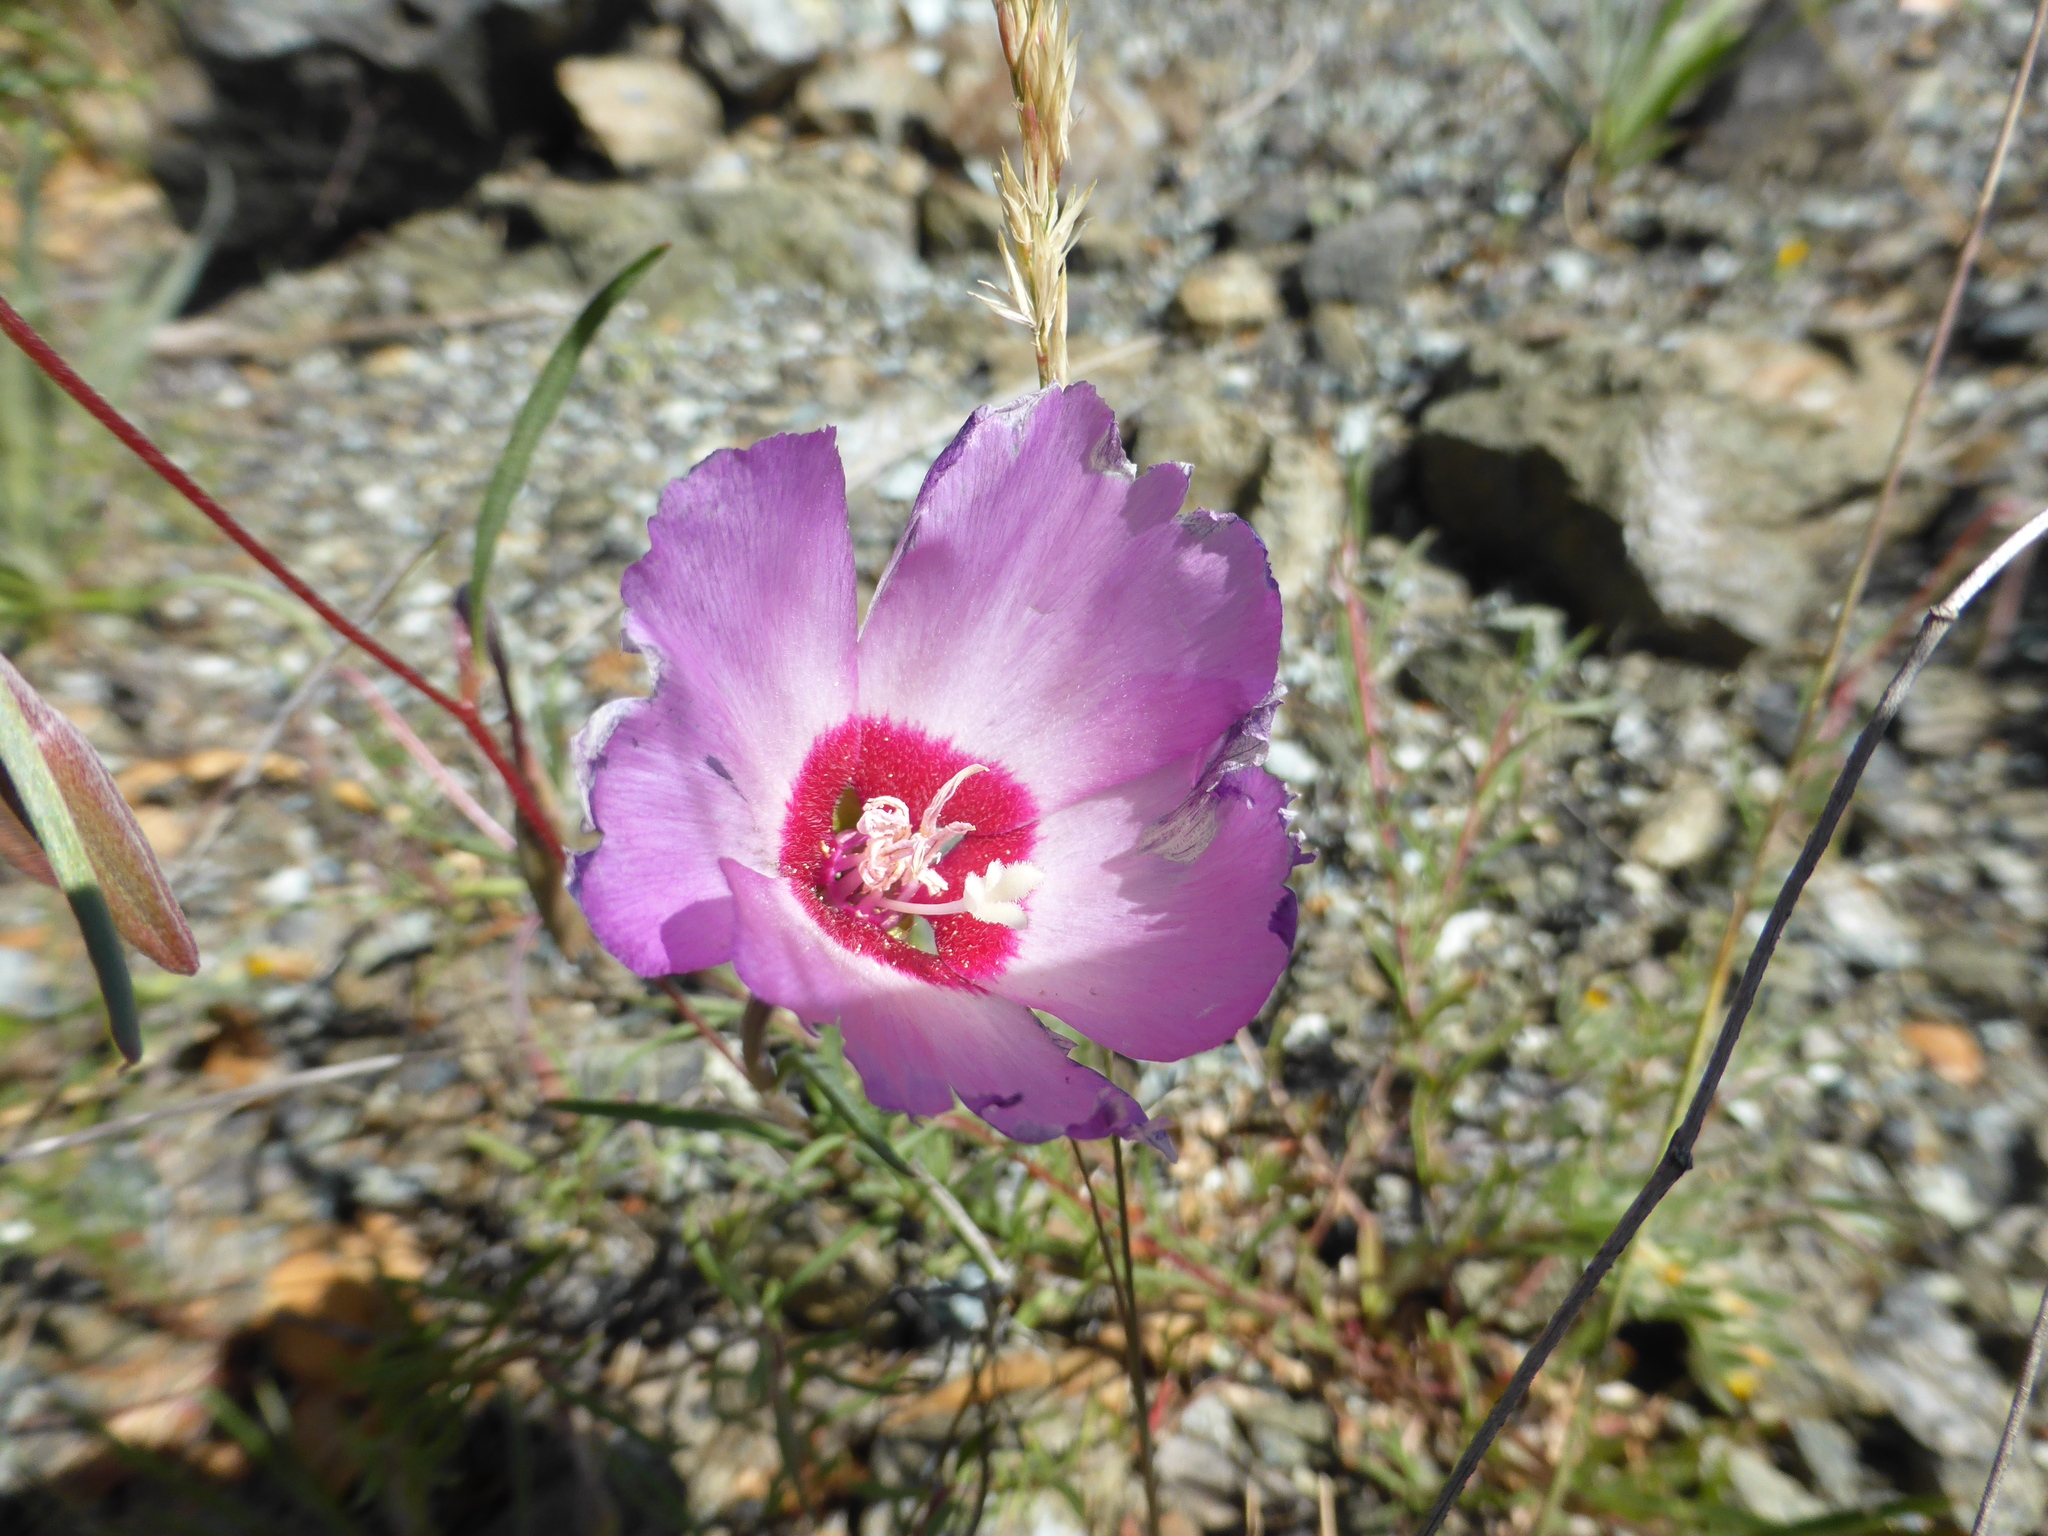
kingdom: Plantae
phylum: Tracheophyta
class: Magnoliopsida
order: Myrtales
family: Onagraceae
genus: Clarkia
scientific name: Clarkia rubicunda
